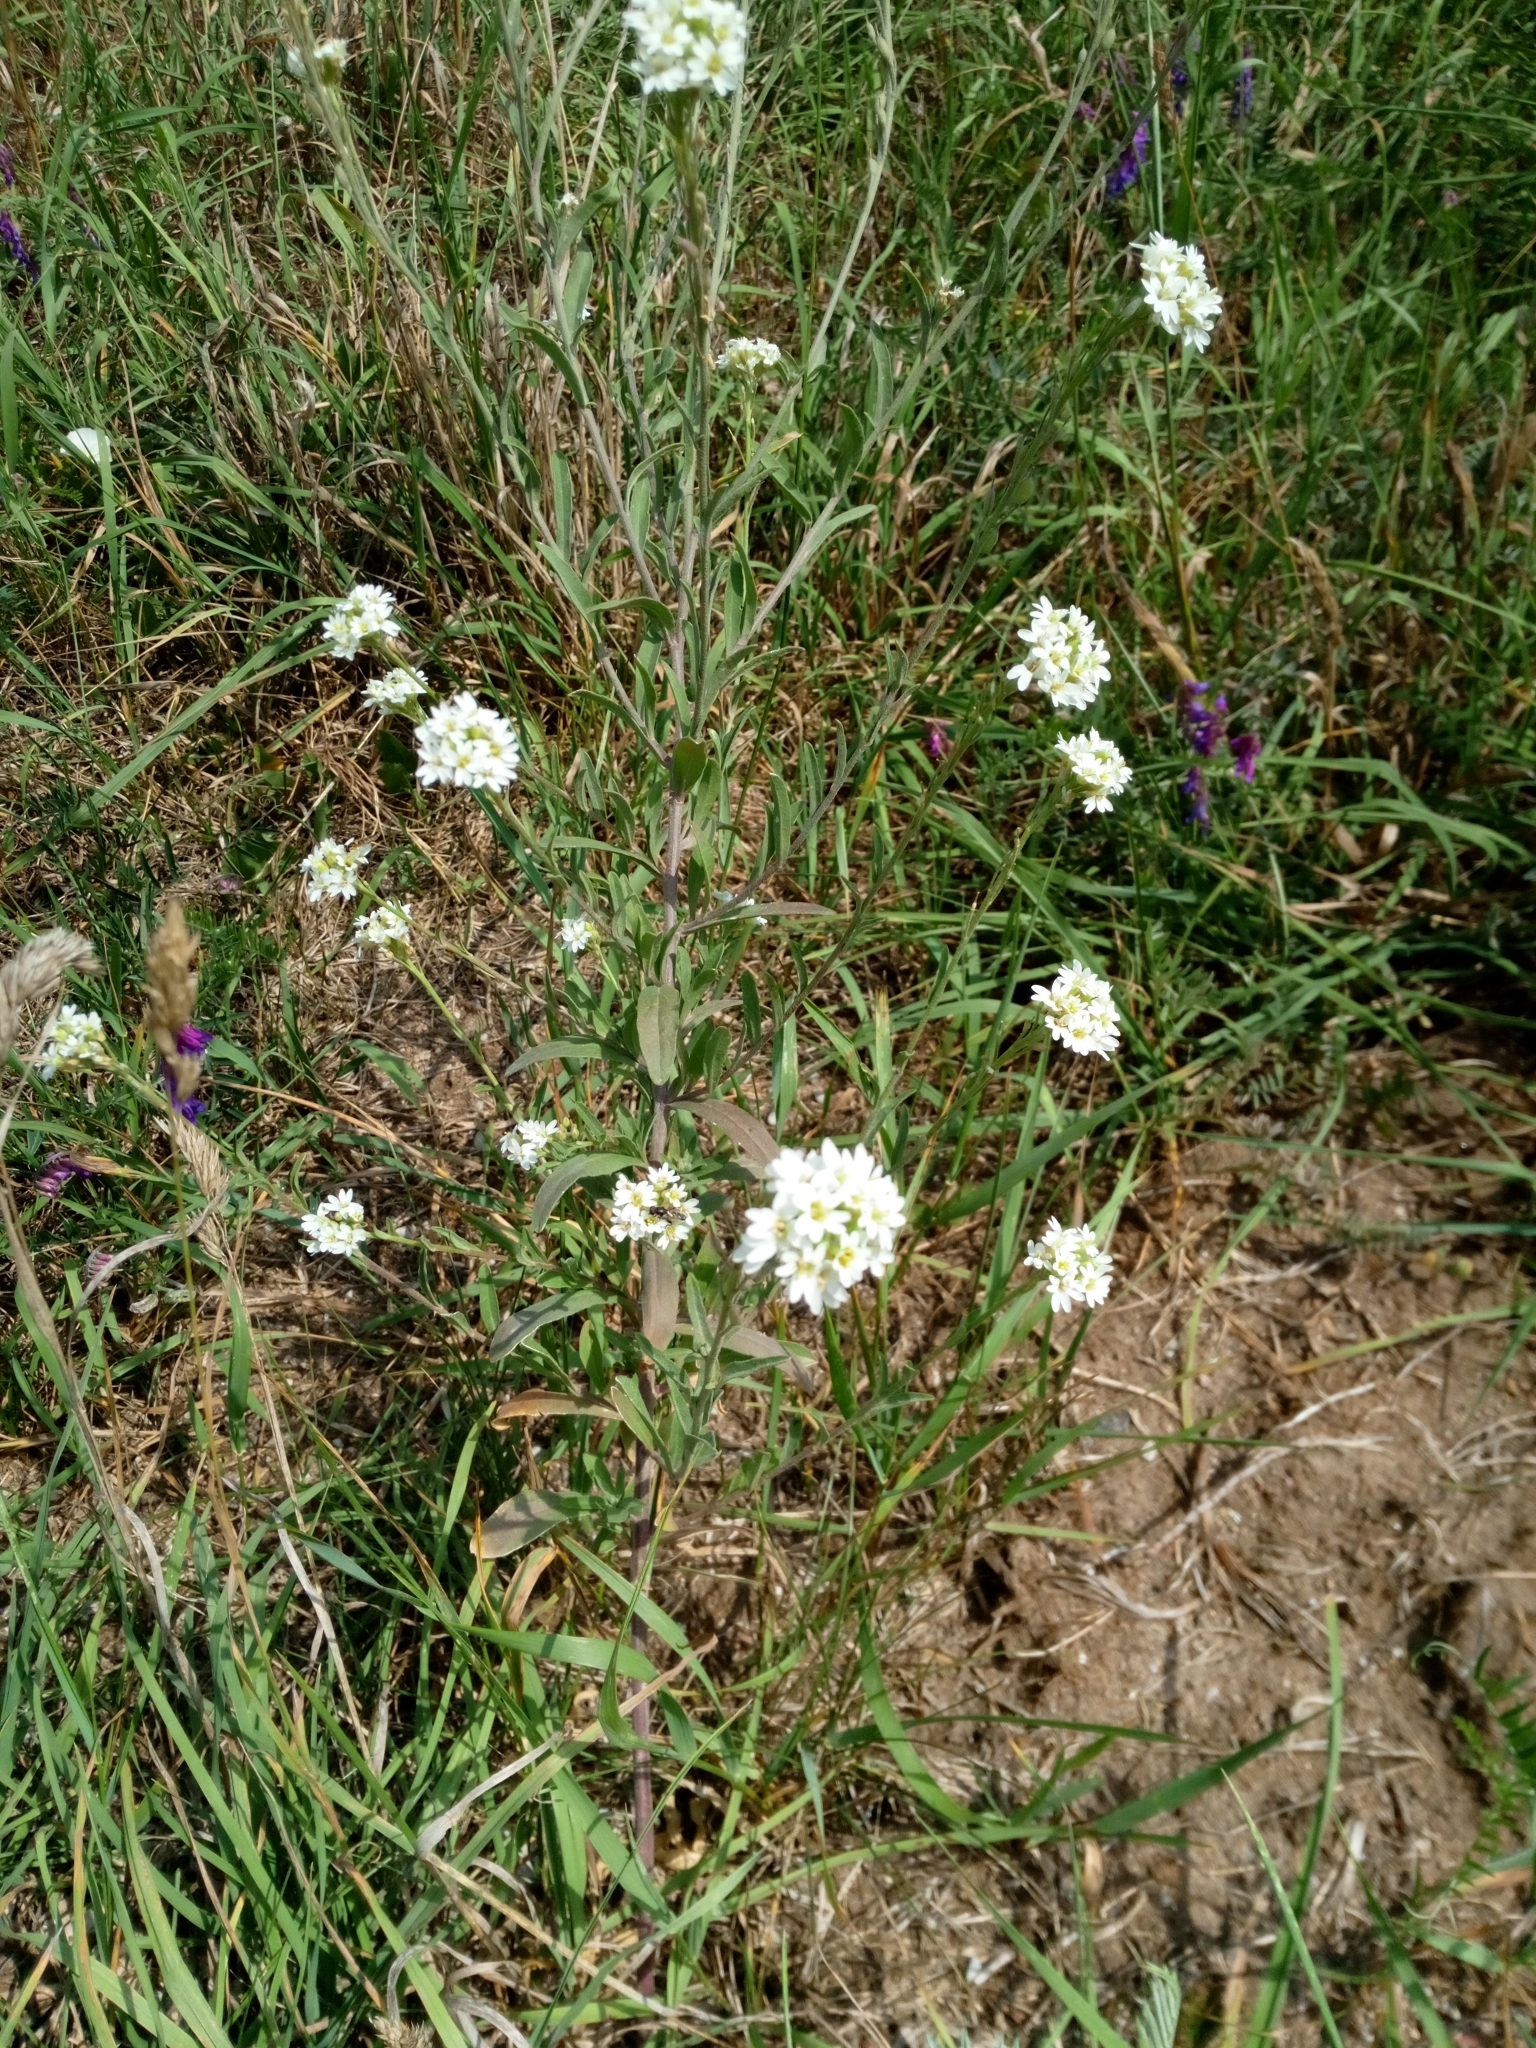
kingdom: Plantae
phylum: Tracheophyta
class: Magnoliopsida
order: Brassicales
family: Brassicaceae
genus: Berteroa
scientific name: Berteroa incana
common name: Hoary alison
